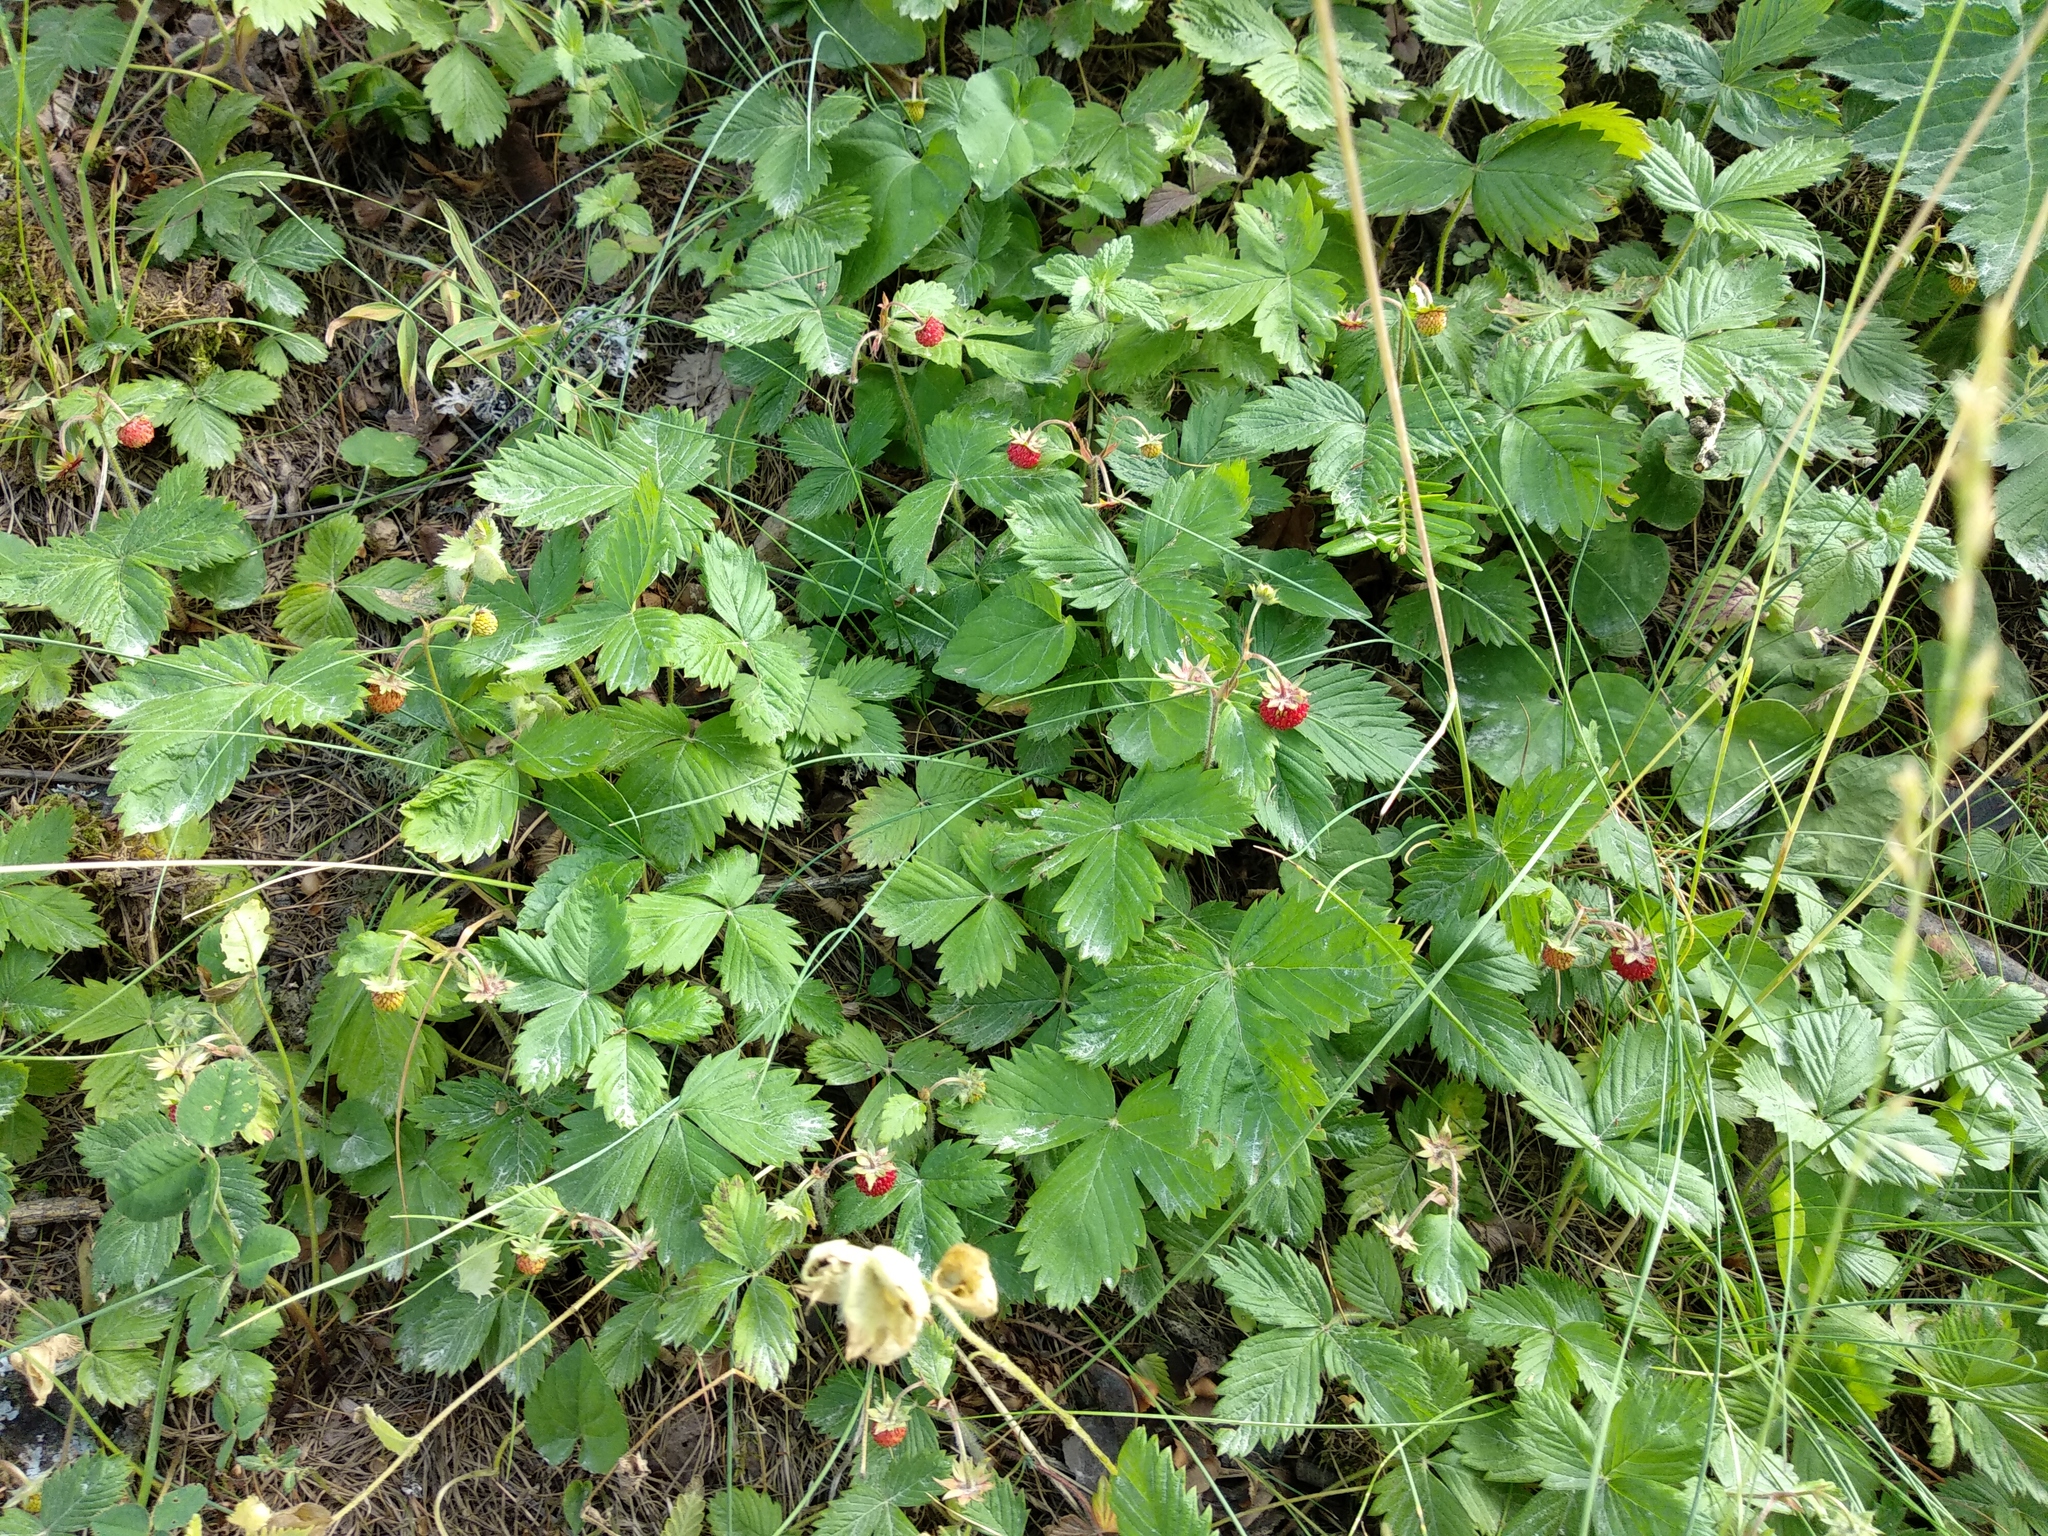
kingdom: Plantae
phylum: Tracheophyta
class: Magnoliopsida
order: Rosales
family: Rosaceae
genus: Fragaria
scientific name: Fragaria vesca
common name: Wild strawberry
